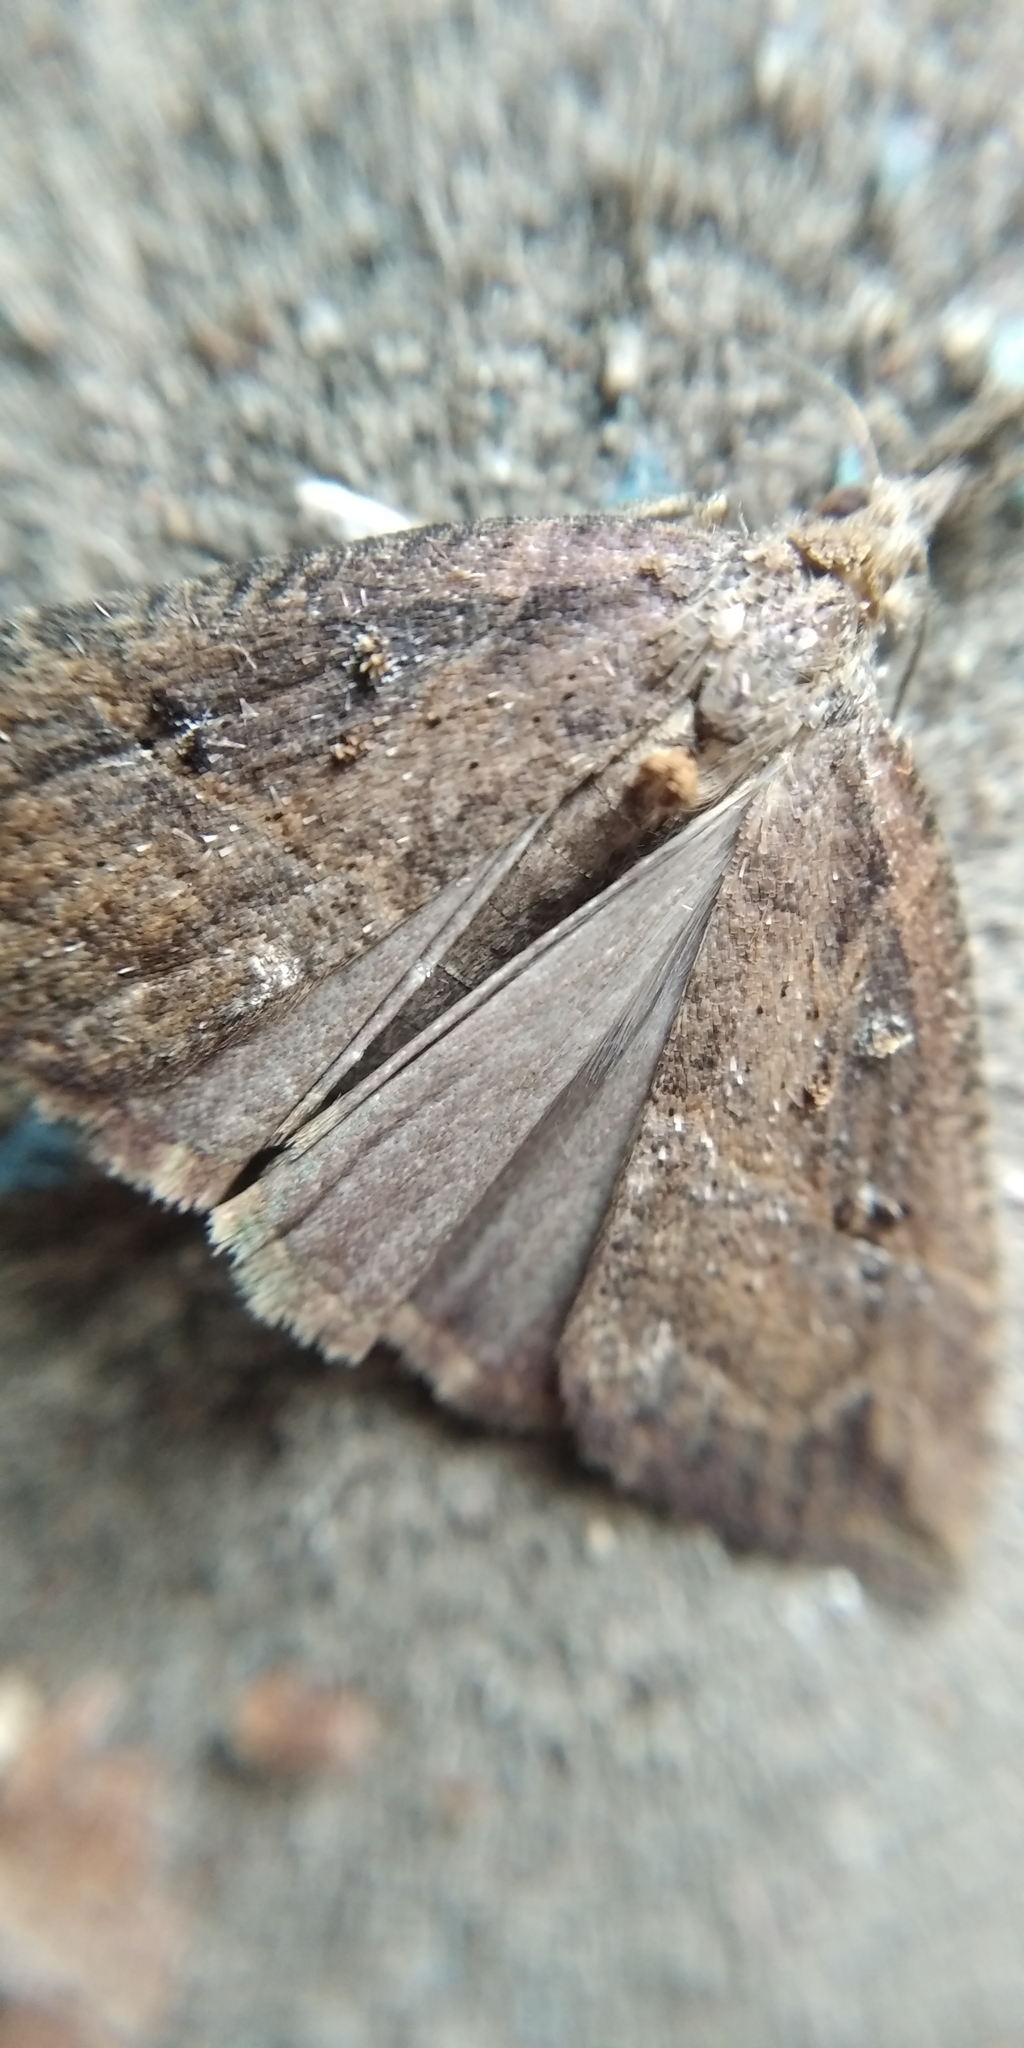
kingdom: Animalia
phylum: Arthropoda
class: Insecta
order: Lepidoptera
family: Erebidae
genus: Hypena
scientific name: Hypena rostralis
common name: Buttoned snout
